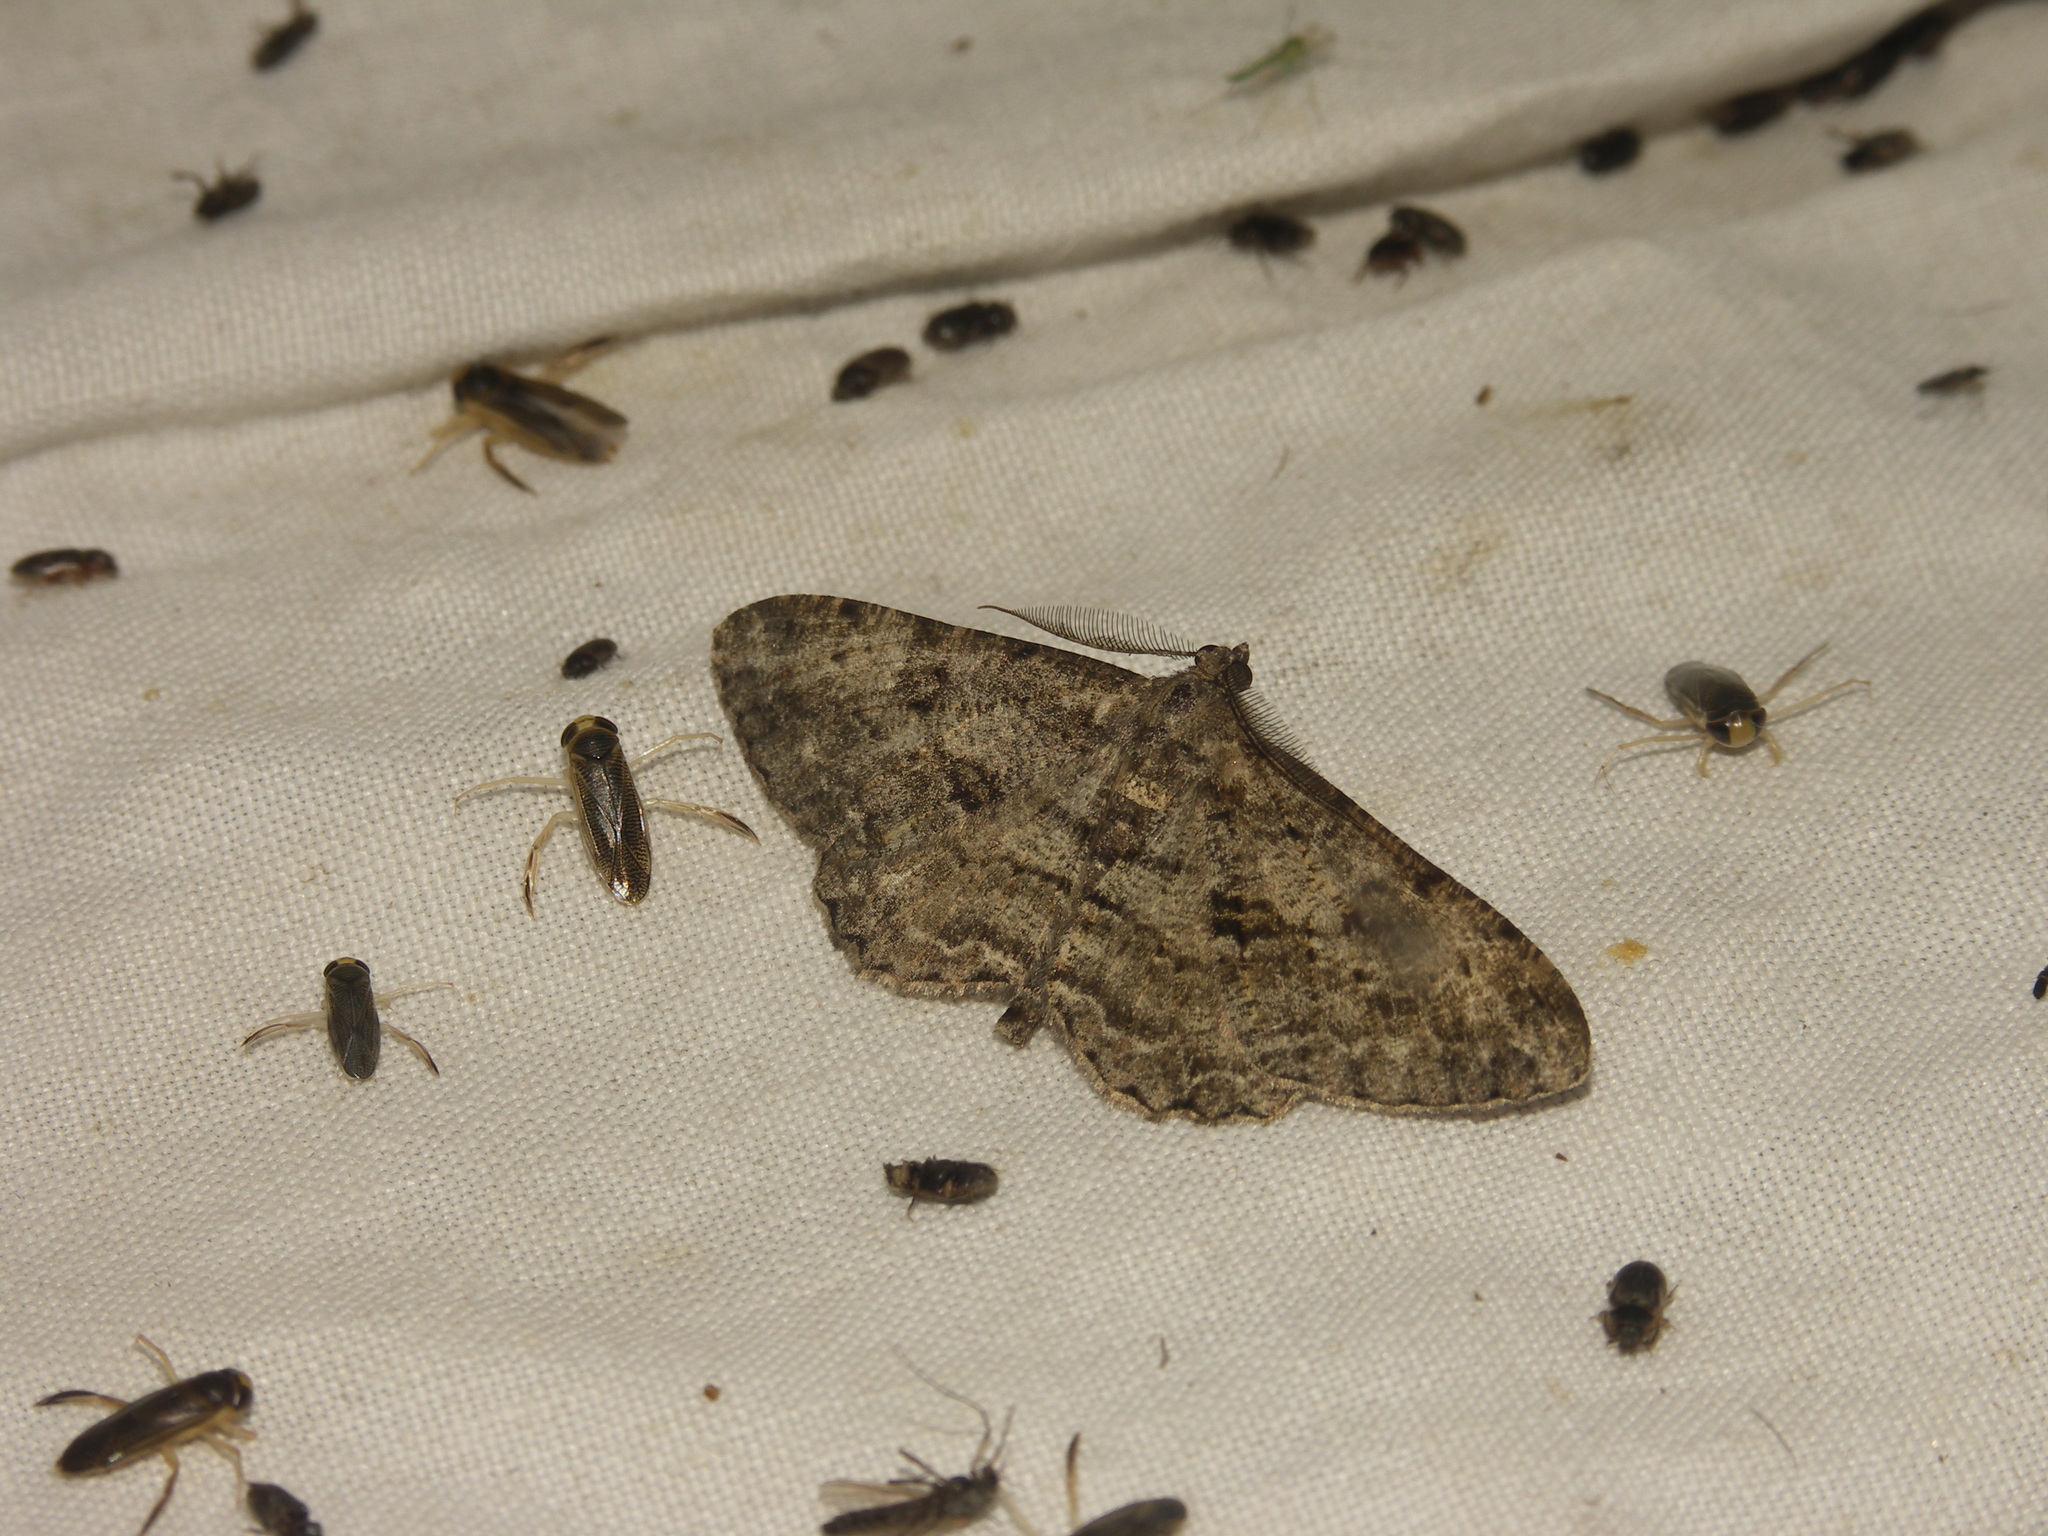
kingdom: Animalia
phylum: Arthropoda
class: Insecta
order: Lepidoptera
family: Geometridae
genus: Peribatodes
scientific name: Peribatodes rhomboidaria
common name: Willow beauty
